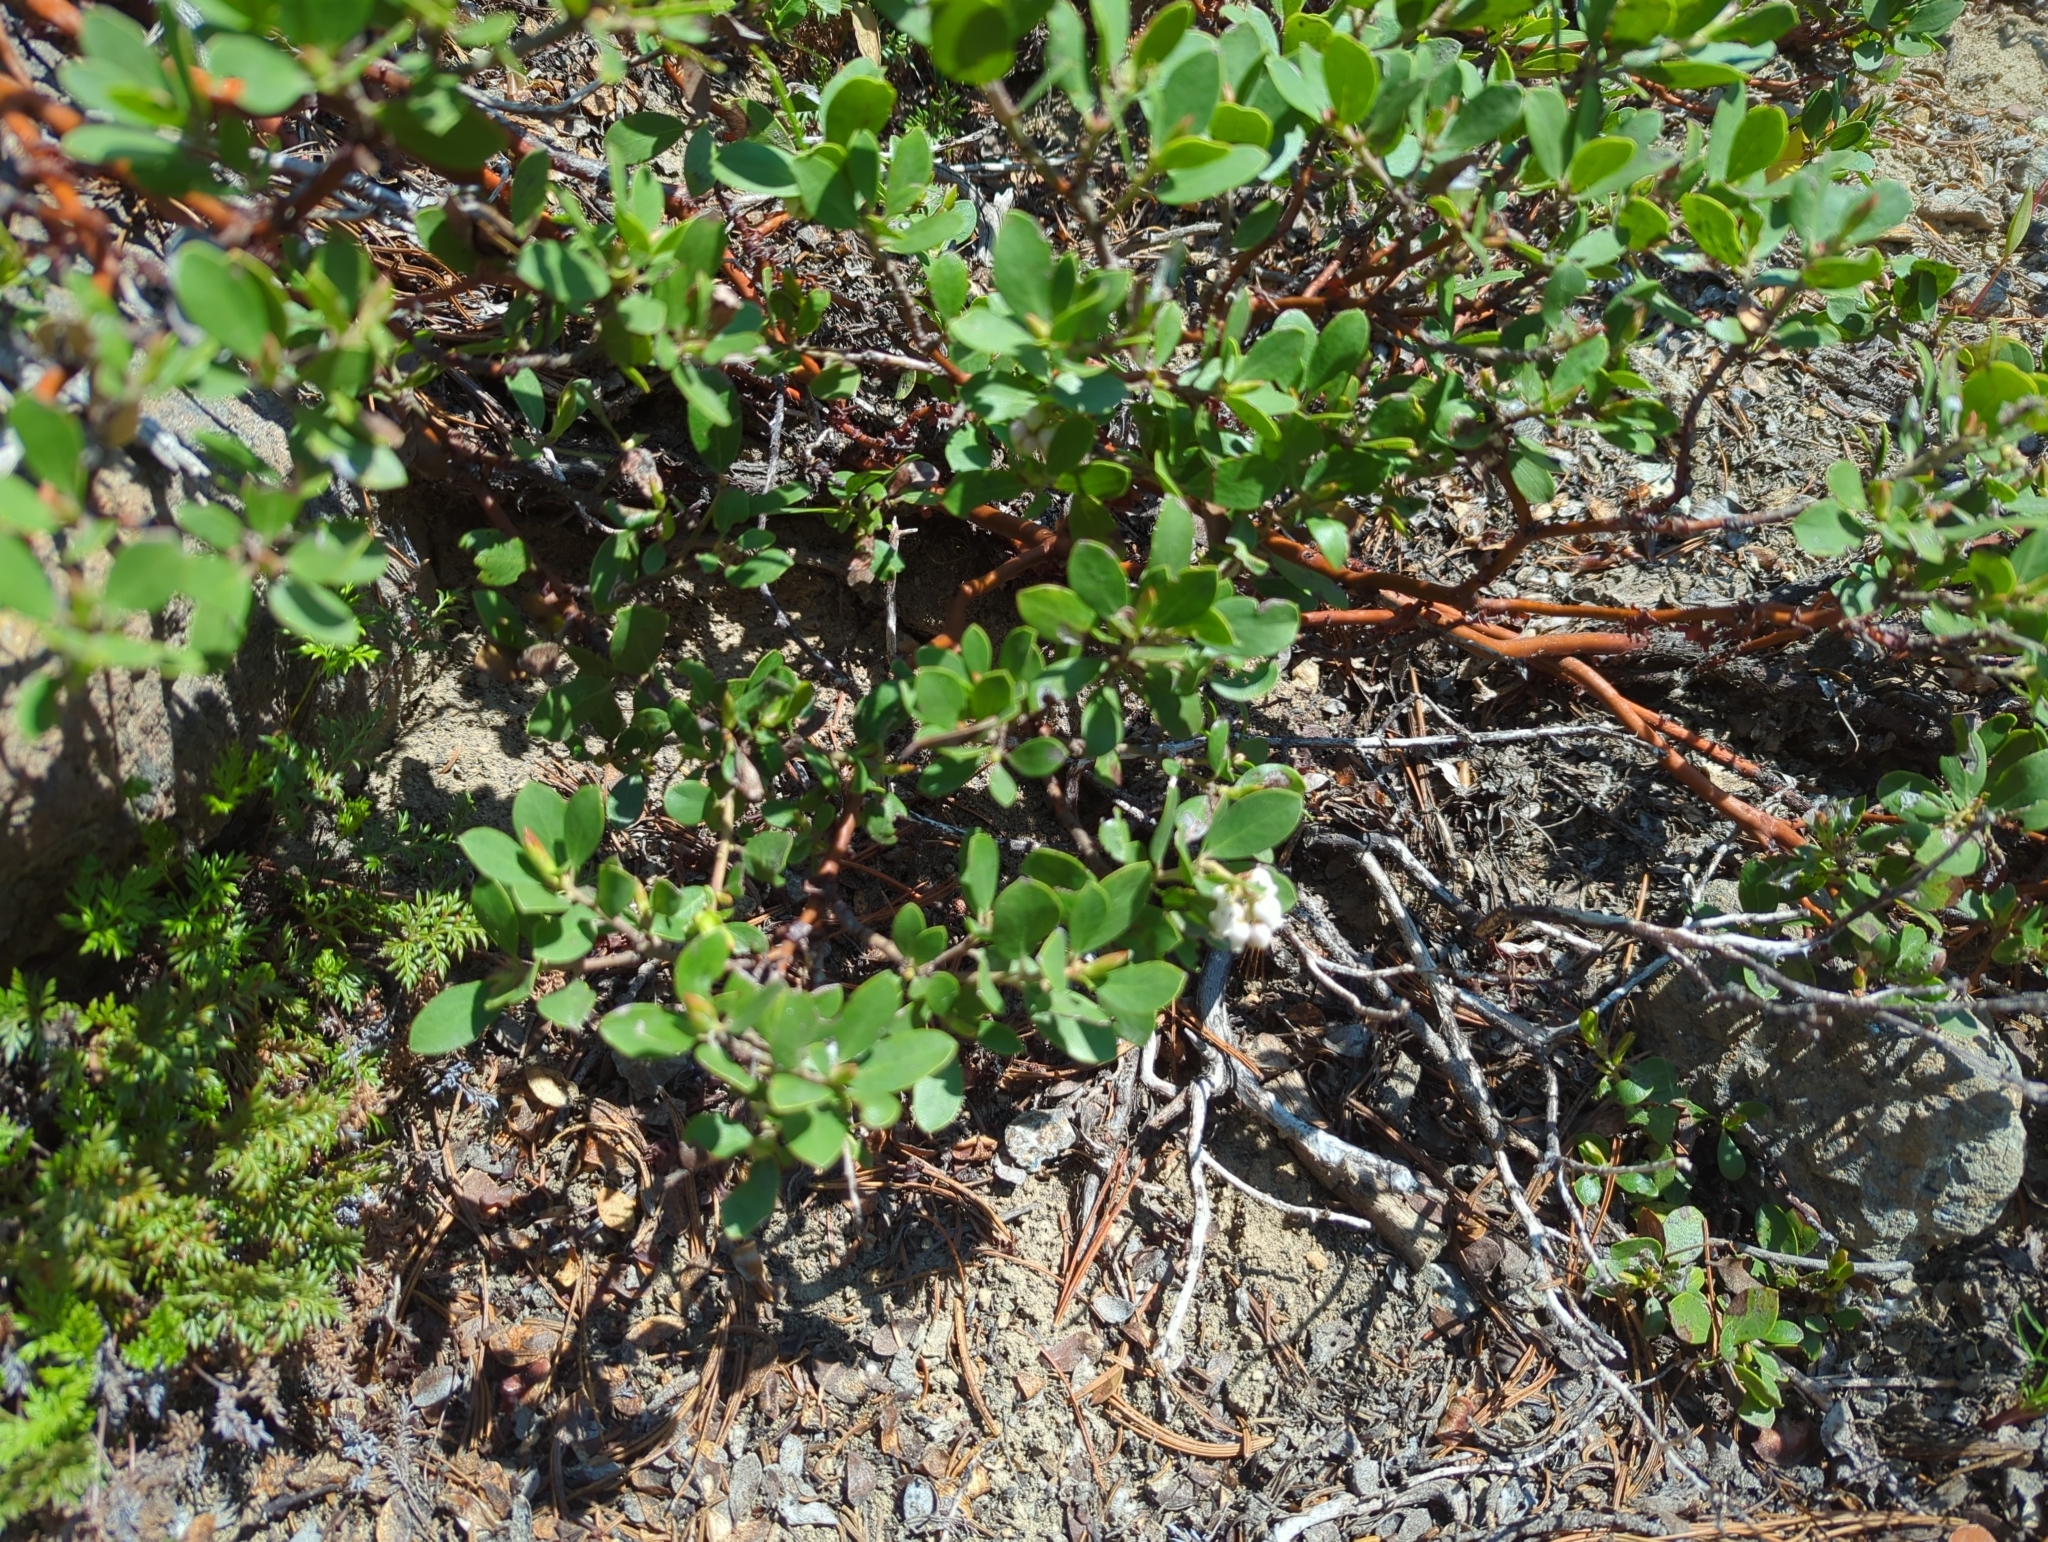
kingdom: Plantae
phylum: Tracheophyta
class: Magnoliopsida
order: Ericales
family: Ericaceae
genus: Arctostaphylos
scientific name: Arctostaphylos nevadensis
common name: Pinemat manzanita
